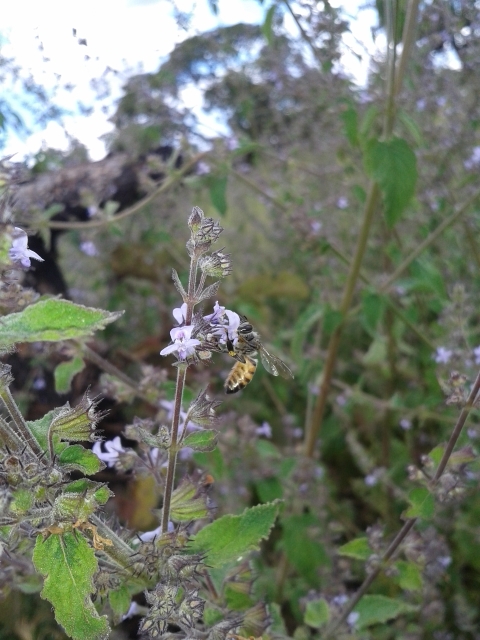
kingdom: Animalia
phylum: Arthropoda
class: Insecta
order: Hymenoptera
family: Apidae
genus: Apis
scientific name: Apis mellifera
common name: Honey bee
